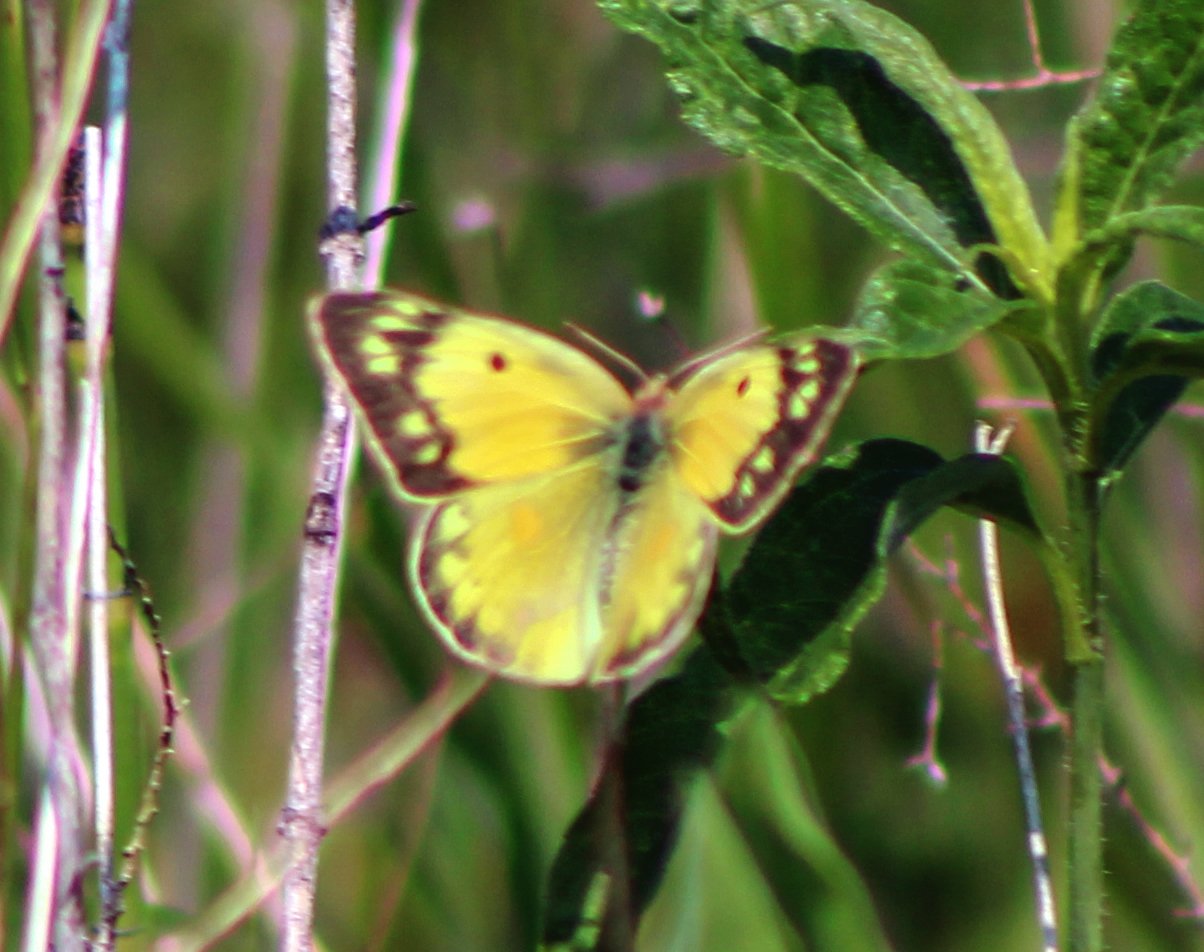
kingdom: Animalia
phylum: Arthropoda
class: Insecta
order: Lepidoptera
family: Pieridae
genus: Colias
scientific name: Colias eurytheme
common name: Alfalfa butterfly
